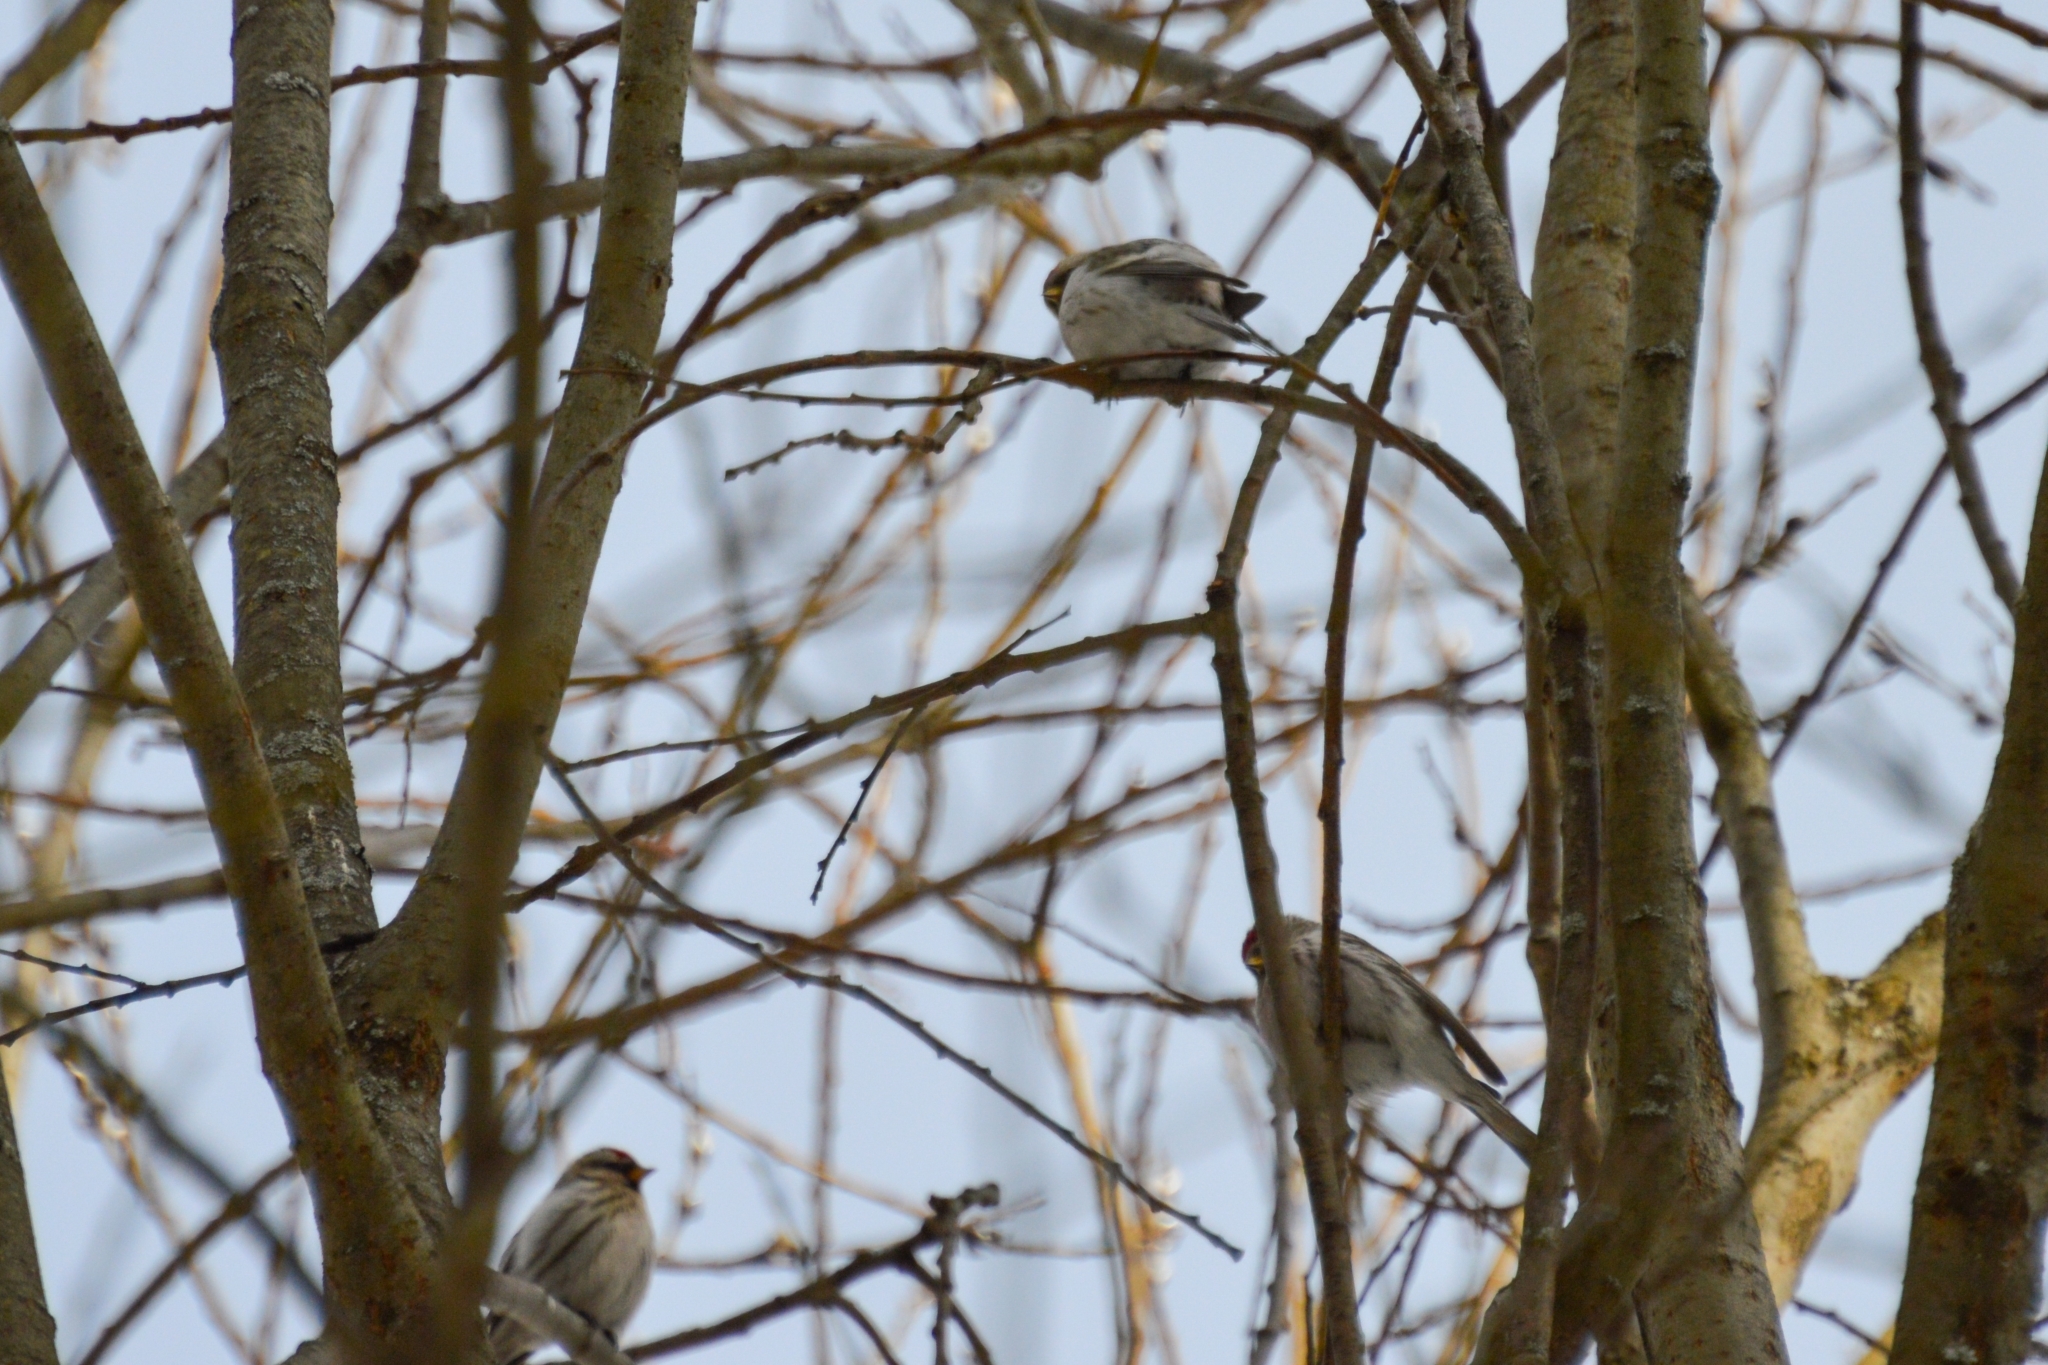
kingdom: Animalia
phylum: Chordata
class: Aves
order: Passeriformes
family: Fringillidae
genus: Acanthis
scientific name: Acanthis hornemanni
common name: Arctic redpoll
